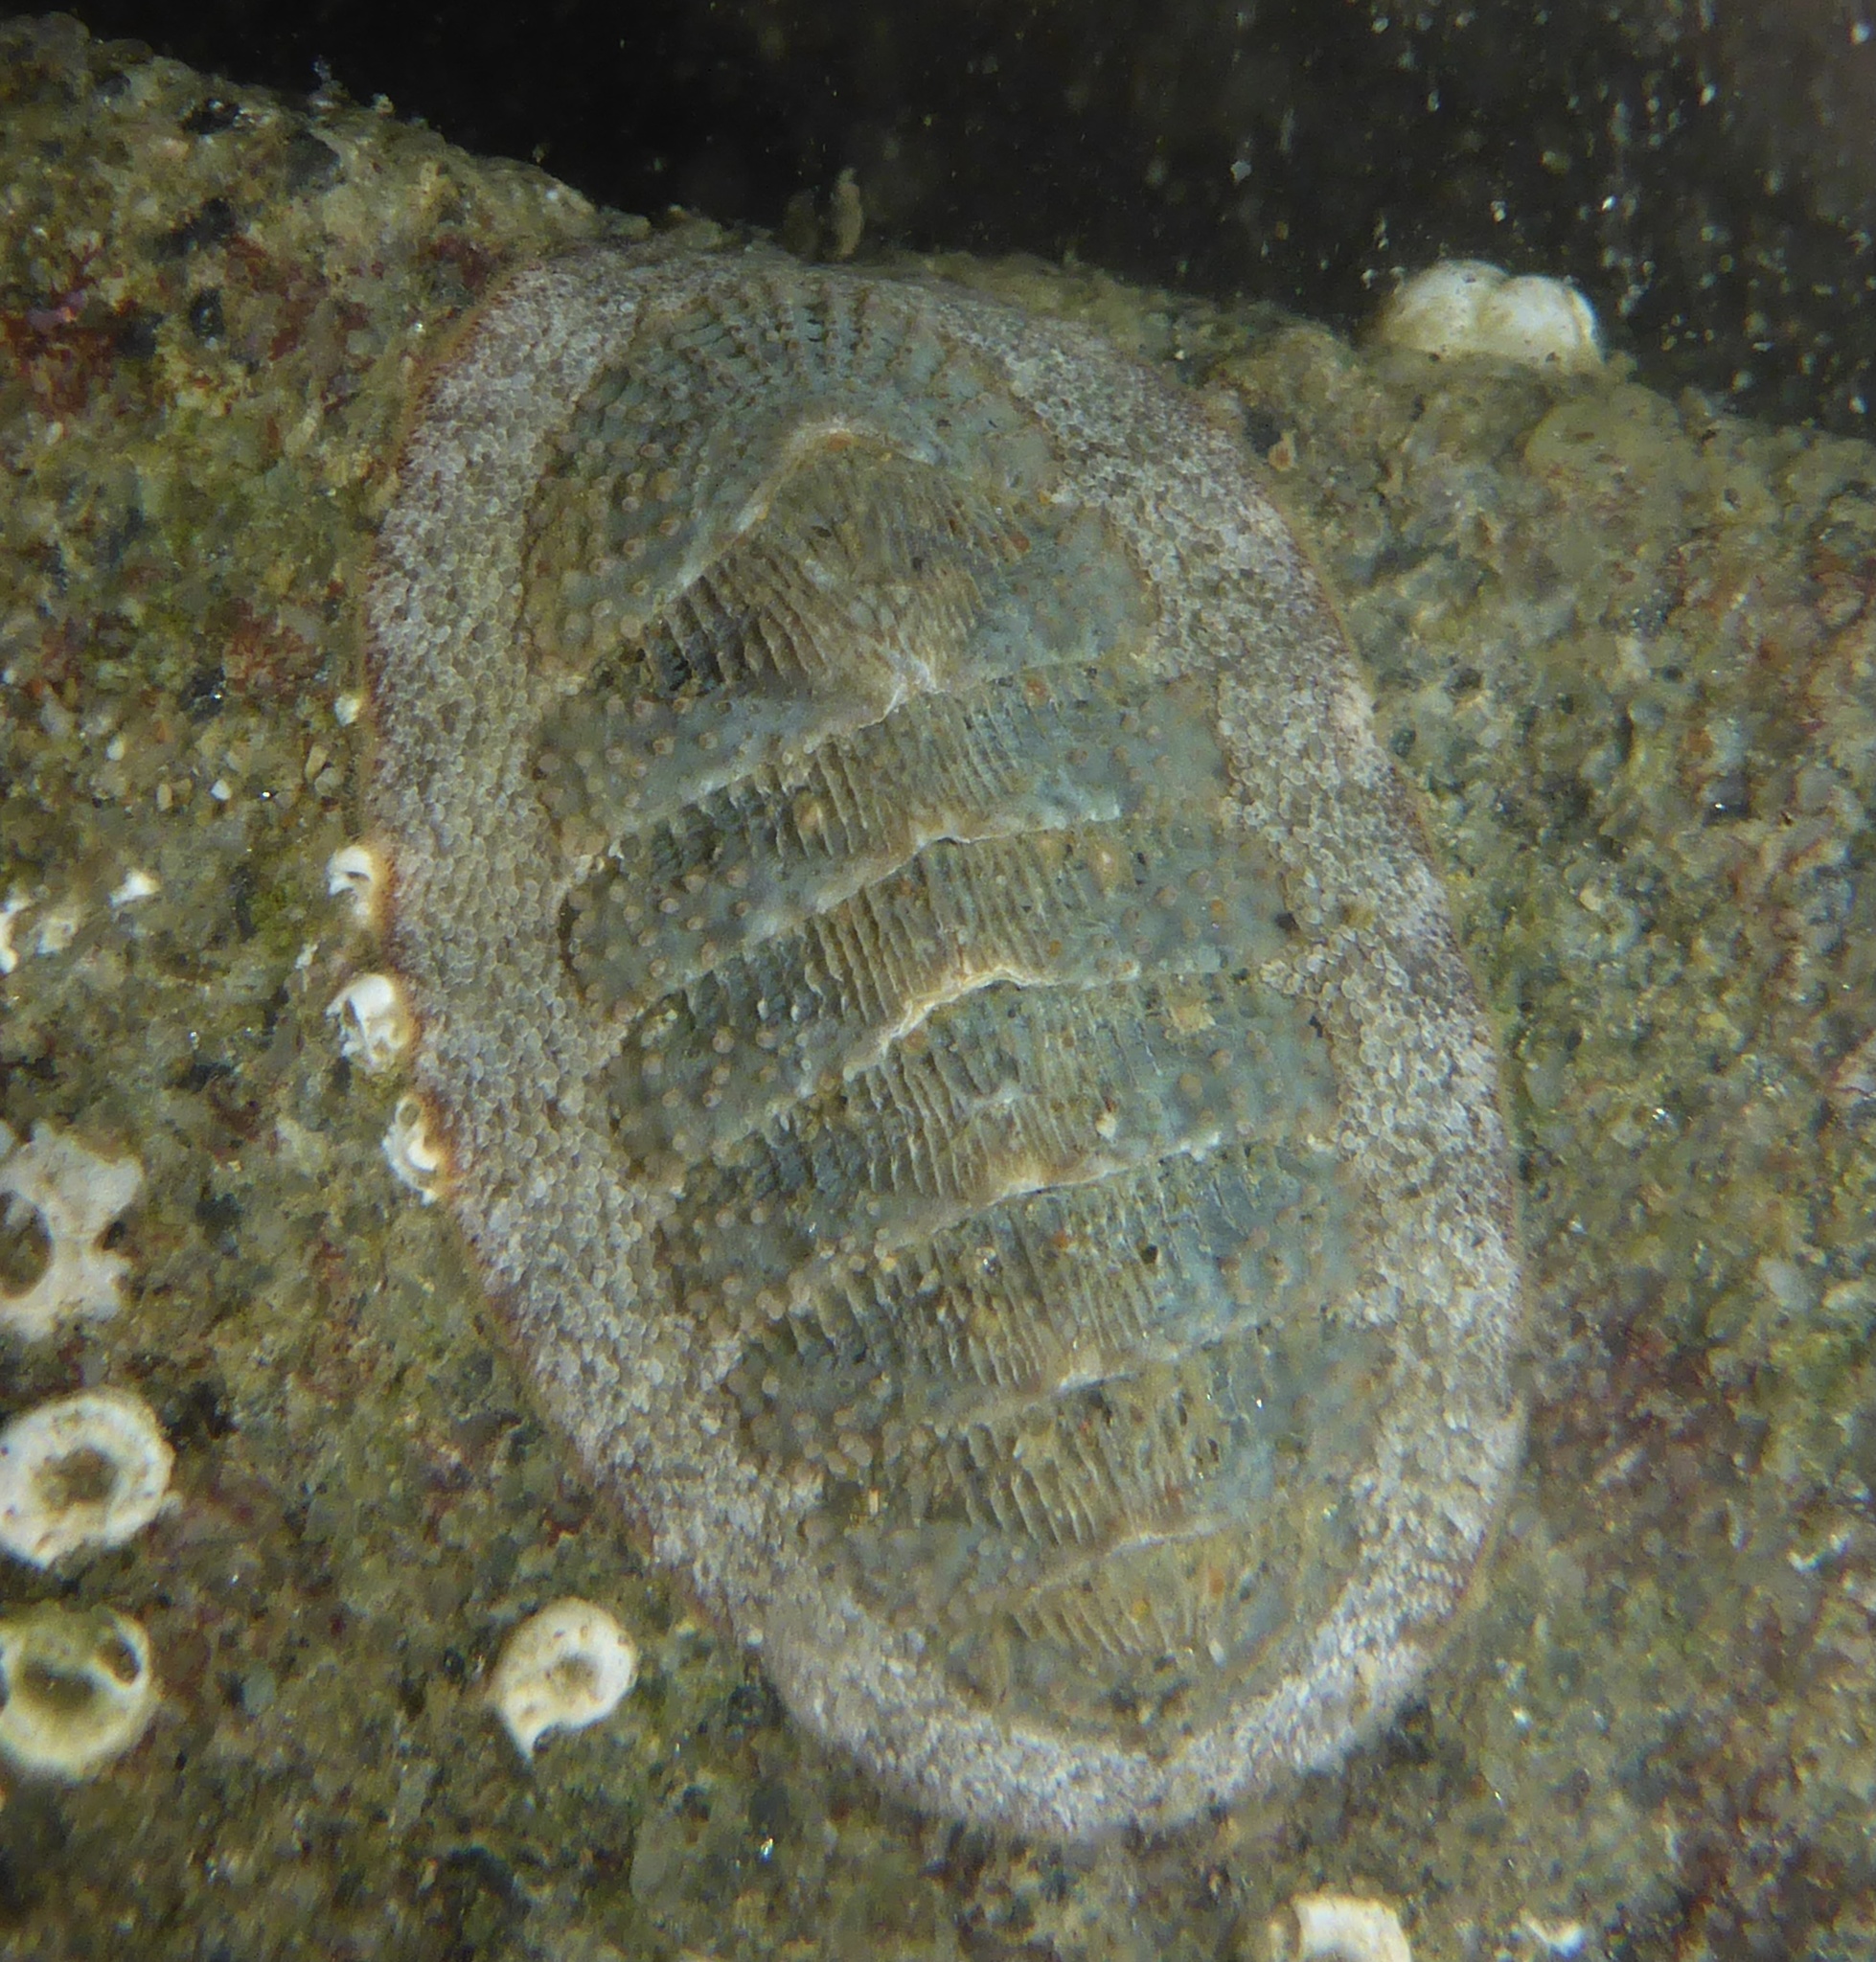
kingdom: Animalia
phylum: Mollusca
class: Polyplacophora
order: Chitonida
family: Ischnochitonidae
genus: Lepidozona
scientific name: Lepidozona cooperi
